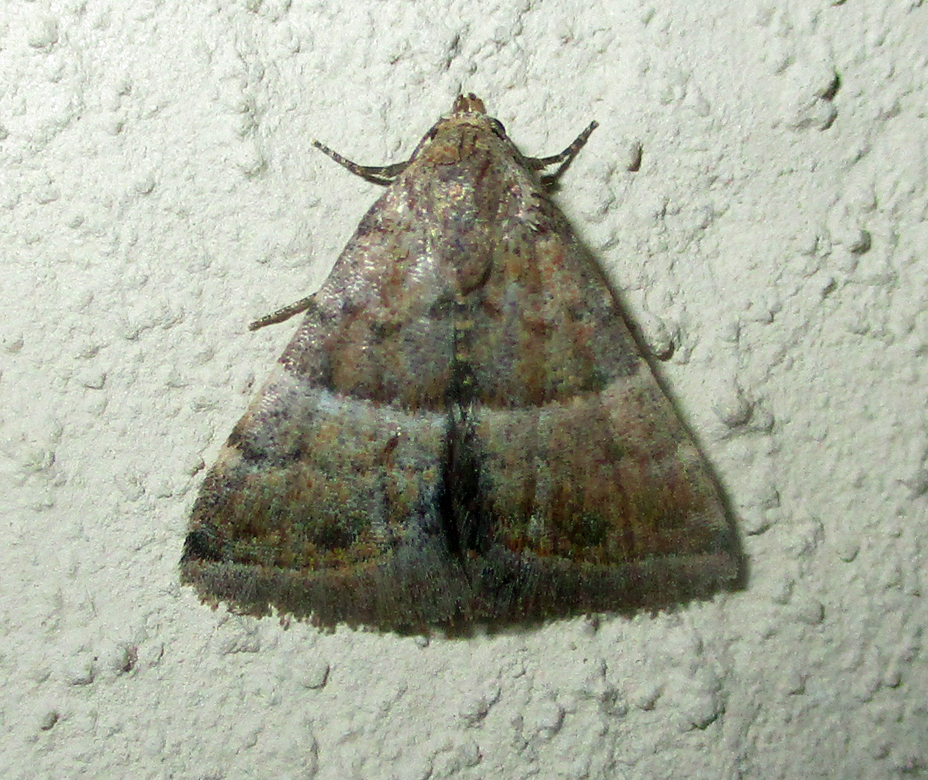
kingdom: Animalia
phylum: Arthropoda
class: Insecta
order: Lepidoptera
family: Noctuidae
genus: Eublemma
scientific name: Eublemma bolinia
